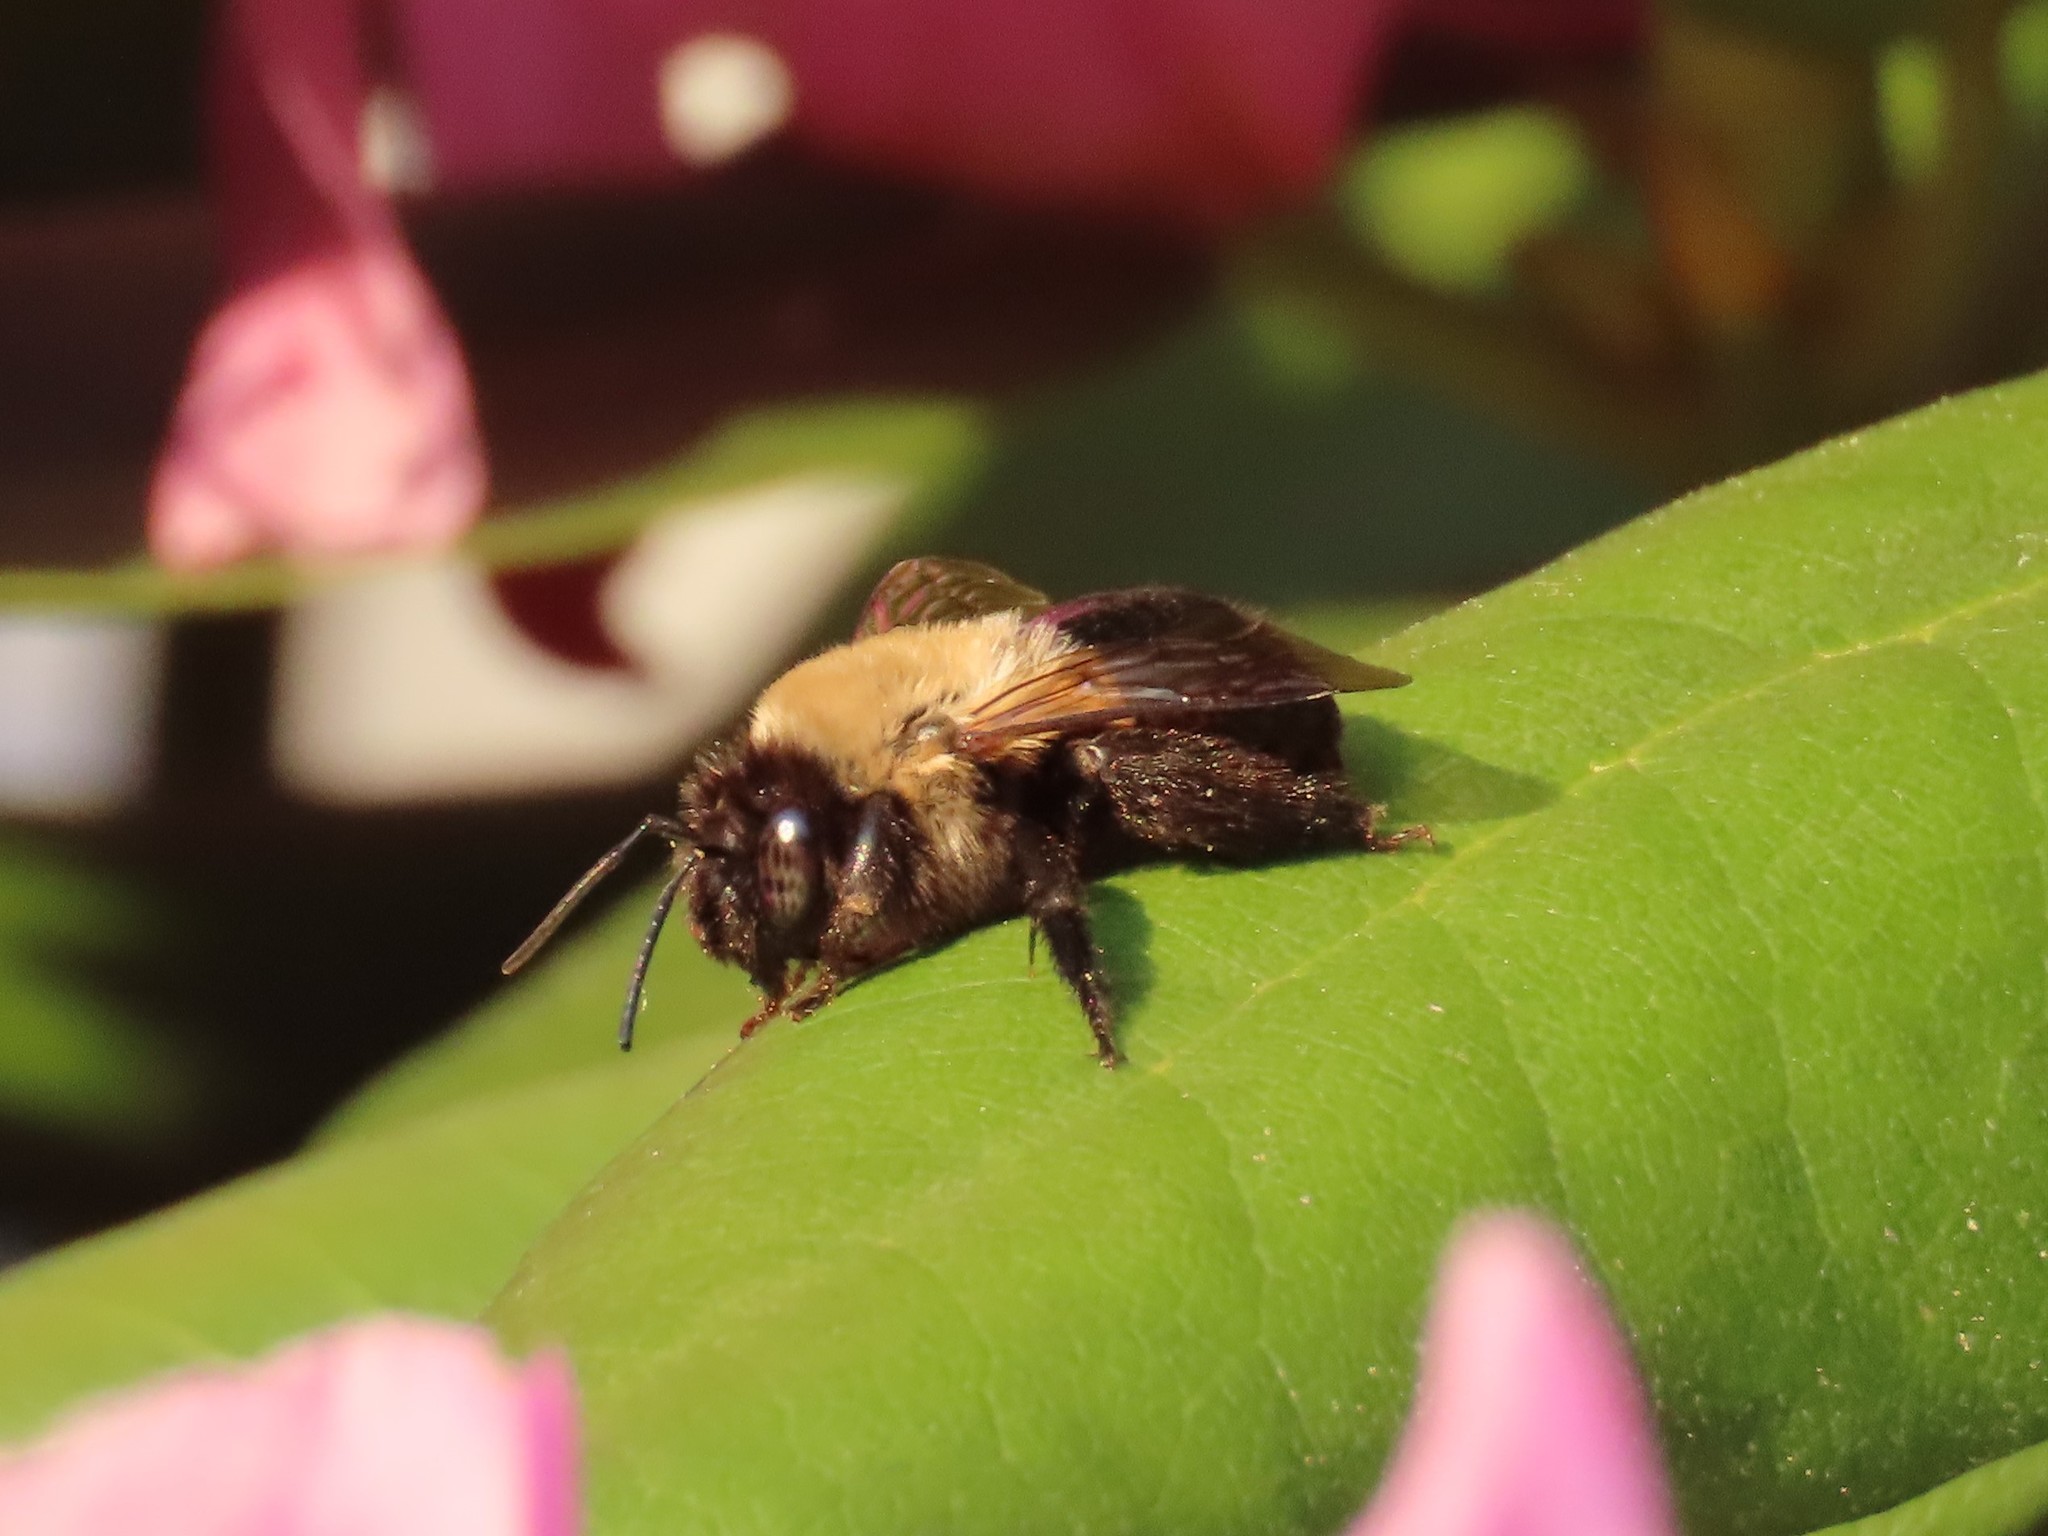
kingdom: Animalia
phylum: Arthropoda
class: Insecta
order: Hymenoptera
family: Apidae
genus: Habropoda
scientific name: Habropoda laboriosa
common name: Southeastern blueberry bee
